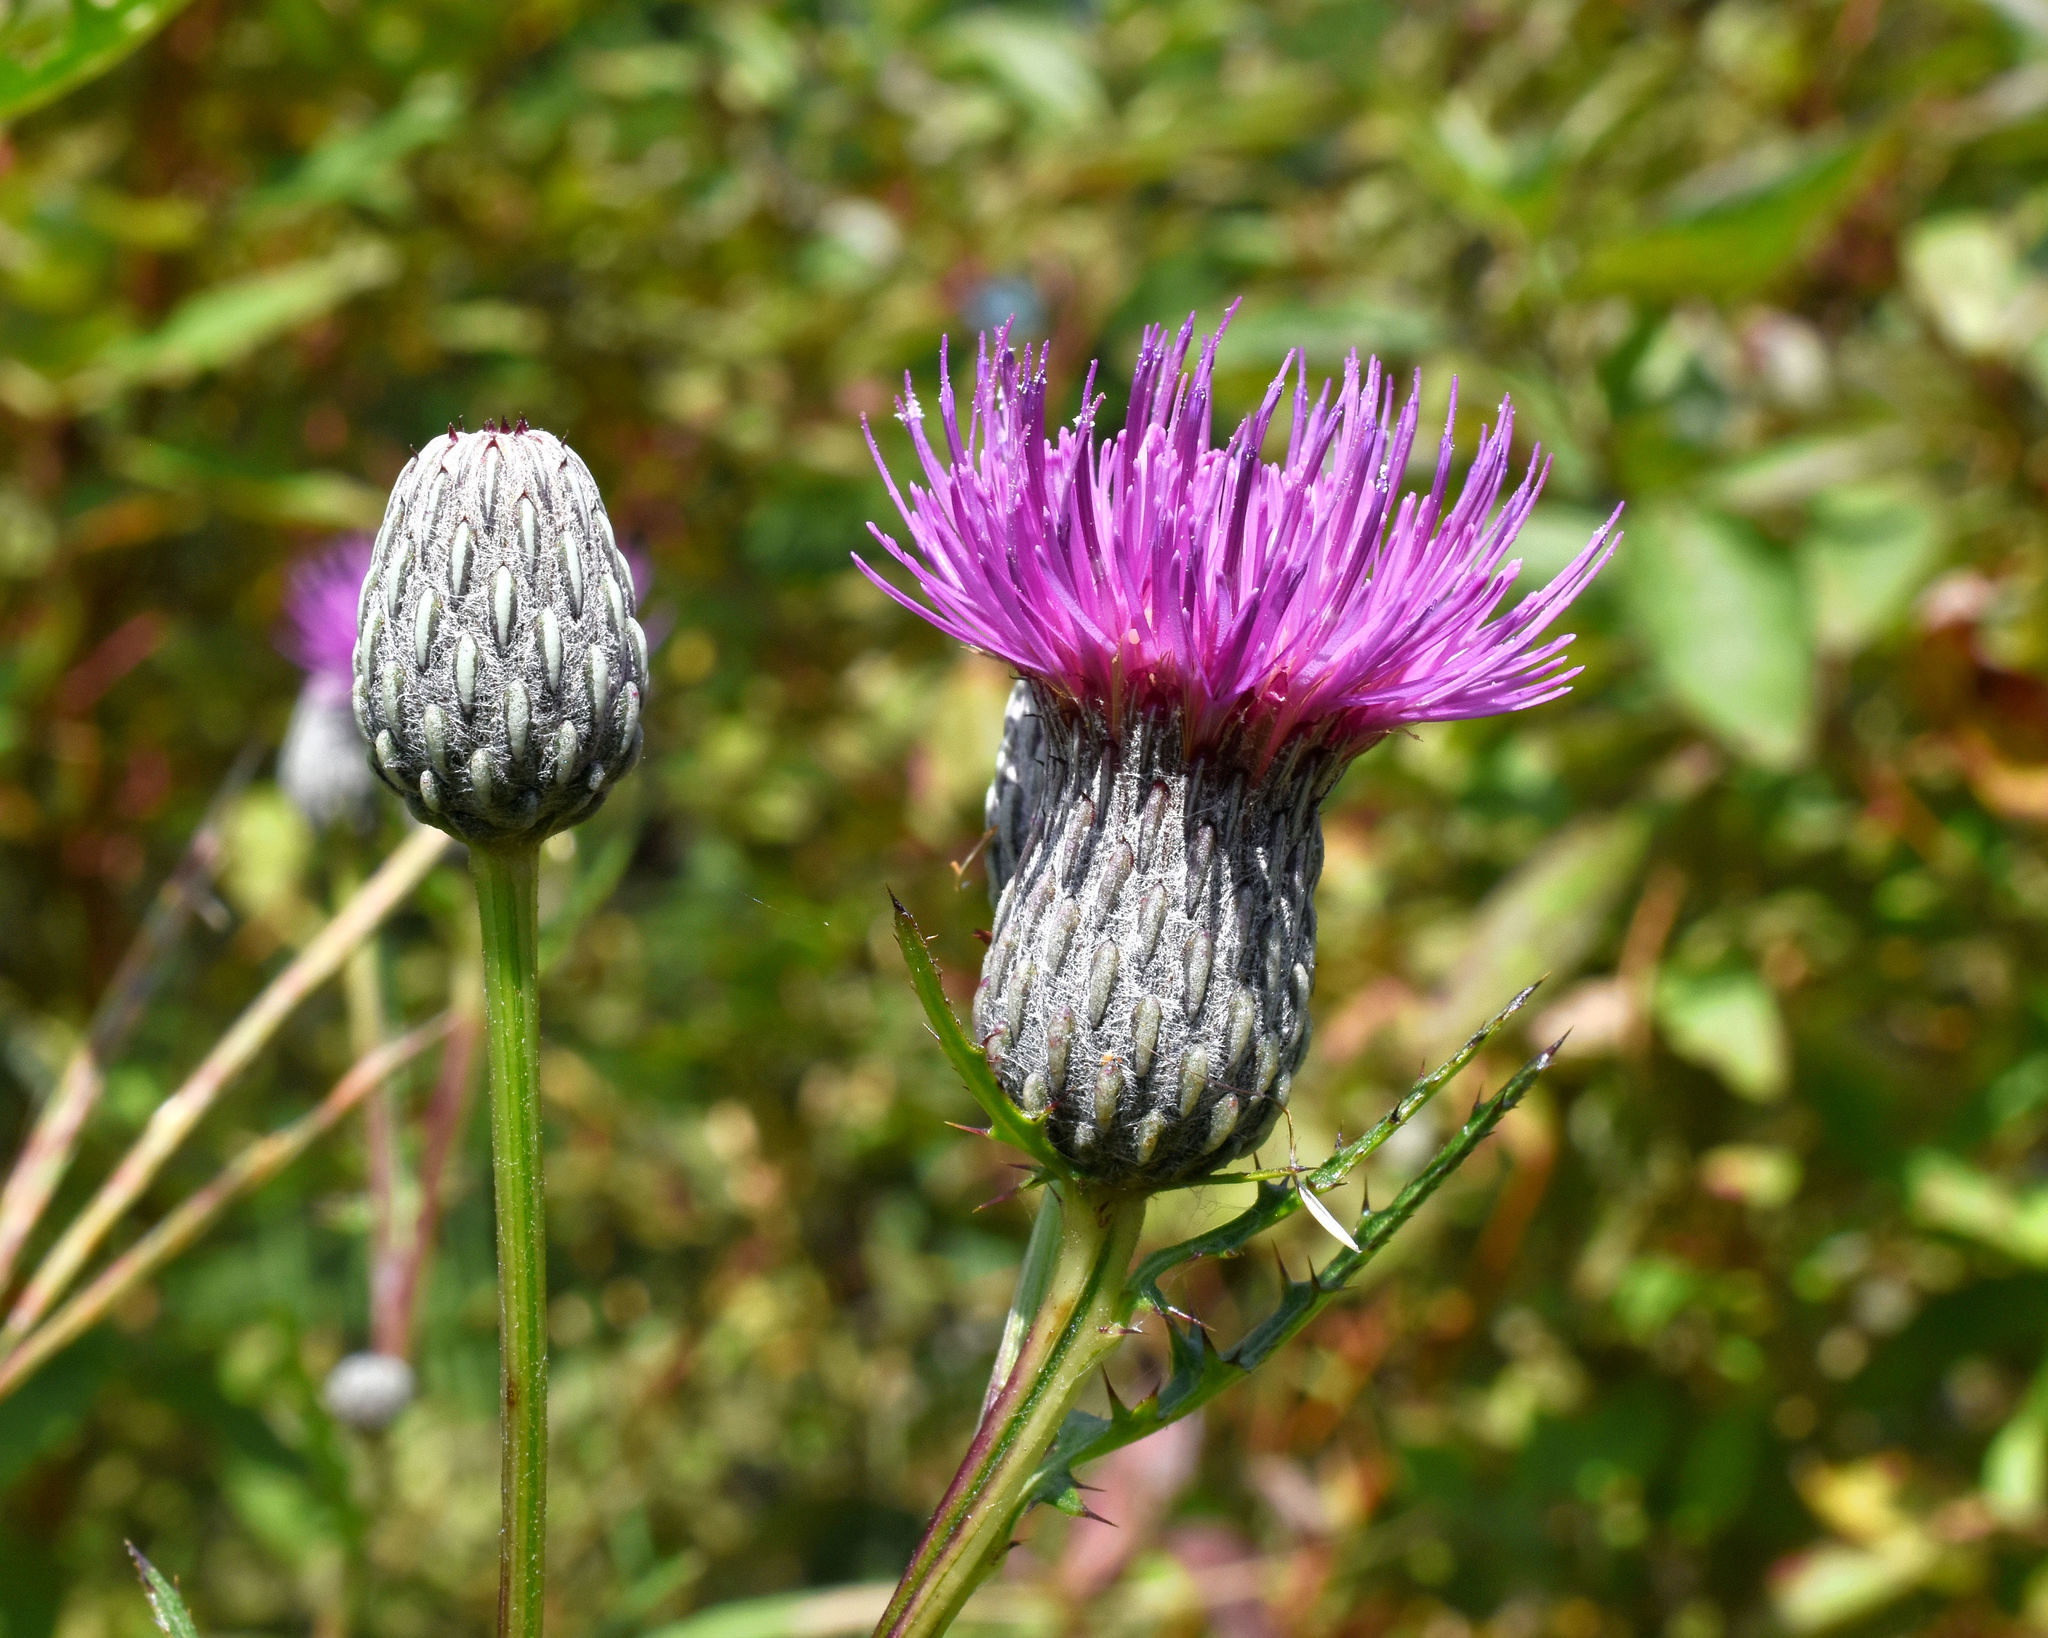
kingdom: Plantae
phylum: Tracheophyta
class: Magnoliopsida
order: Asterales
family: Asteraceae
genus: Cirsium
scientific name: Cirsium muticum
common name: Dunce-nettle
